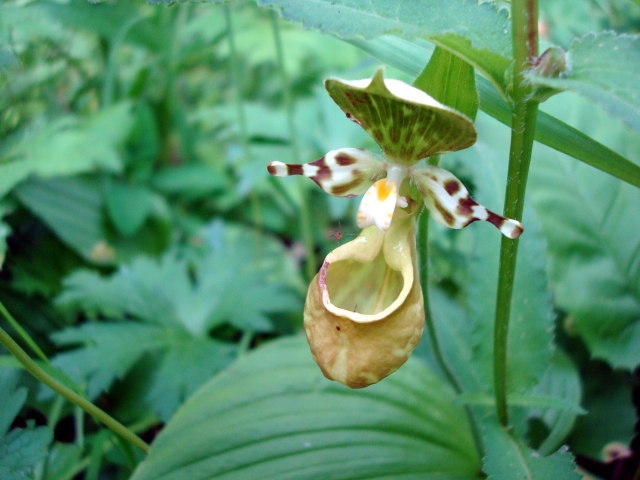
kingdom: Plantae
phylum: Tracheophyta
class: Liliopsida
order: Asparagales
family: Orchidaceae
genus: Cypripedium
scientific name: Cypripedium yatabeanum
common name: Spotted lady's slipper
